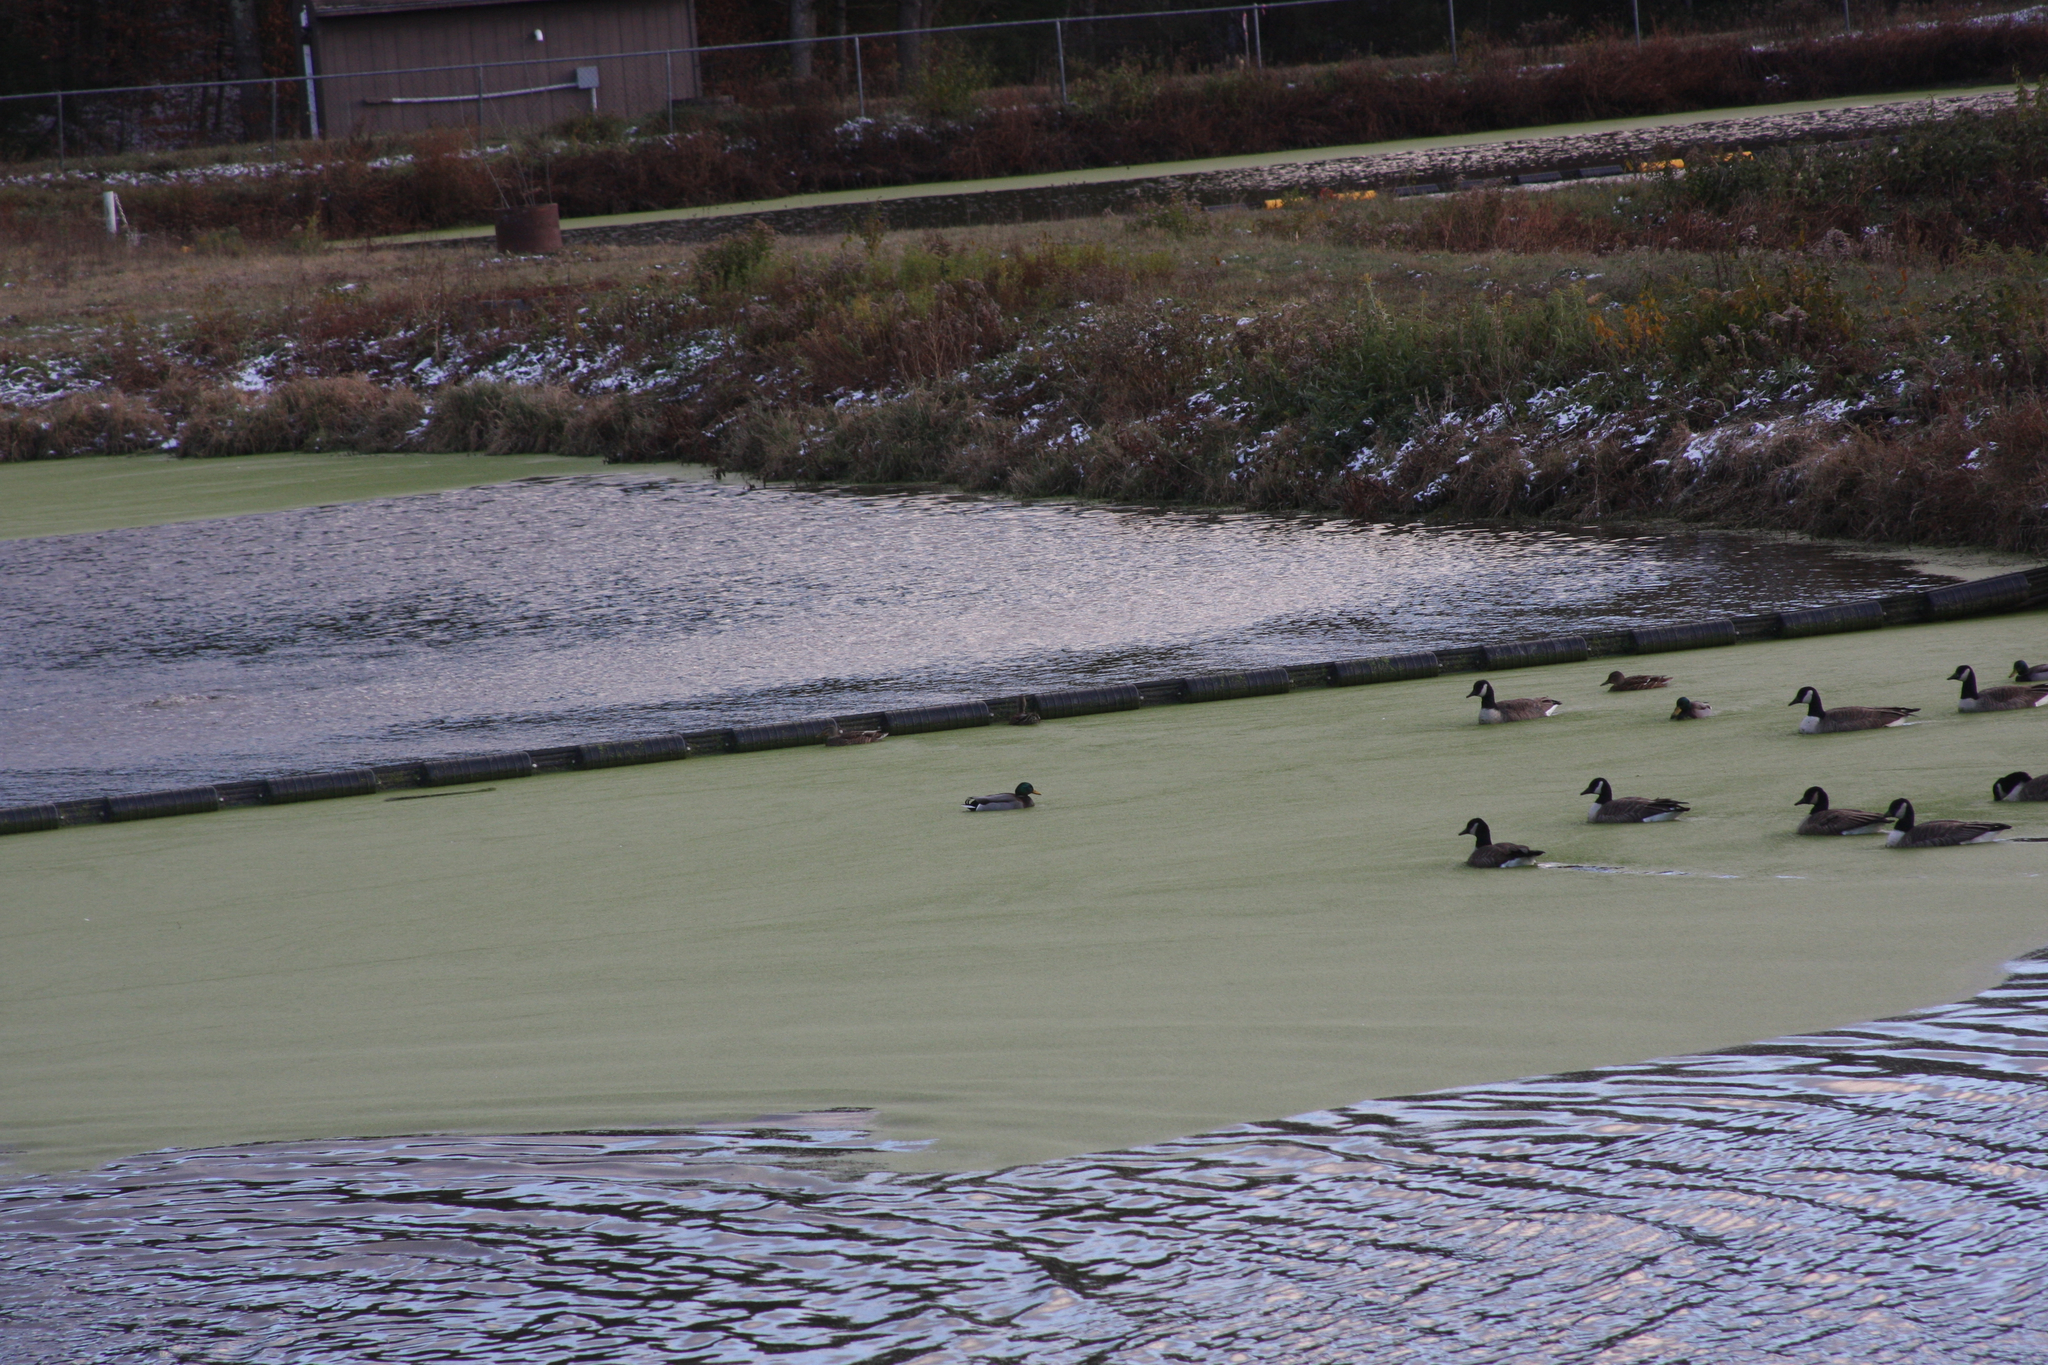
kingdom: Animalia
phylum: Chordata
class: Aves
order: Anseriformes
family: Anatidae
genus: Anas
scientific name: Anas platyrhynchos
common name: Mallard
